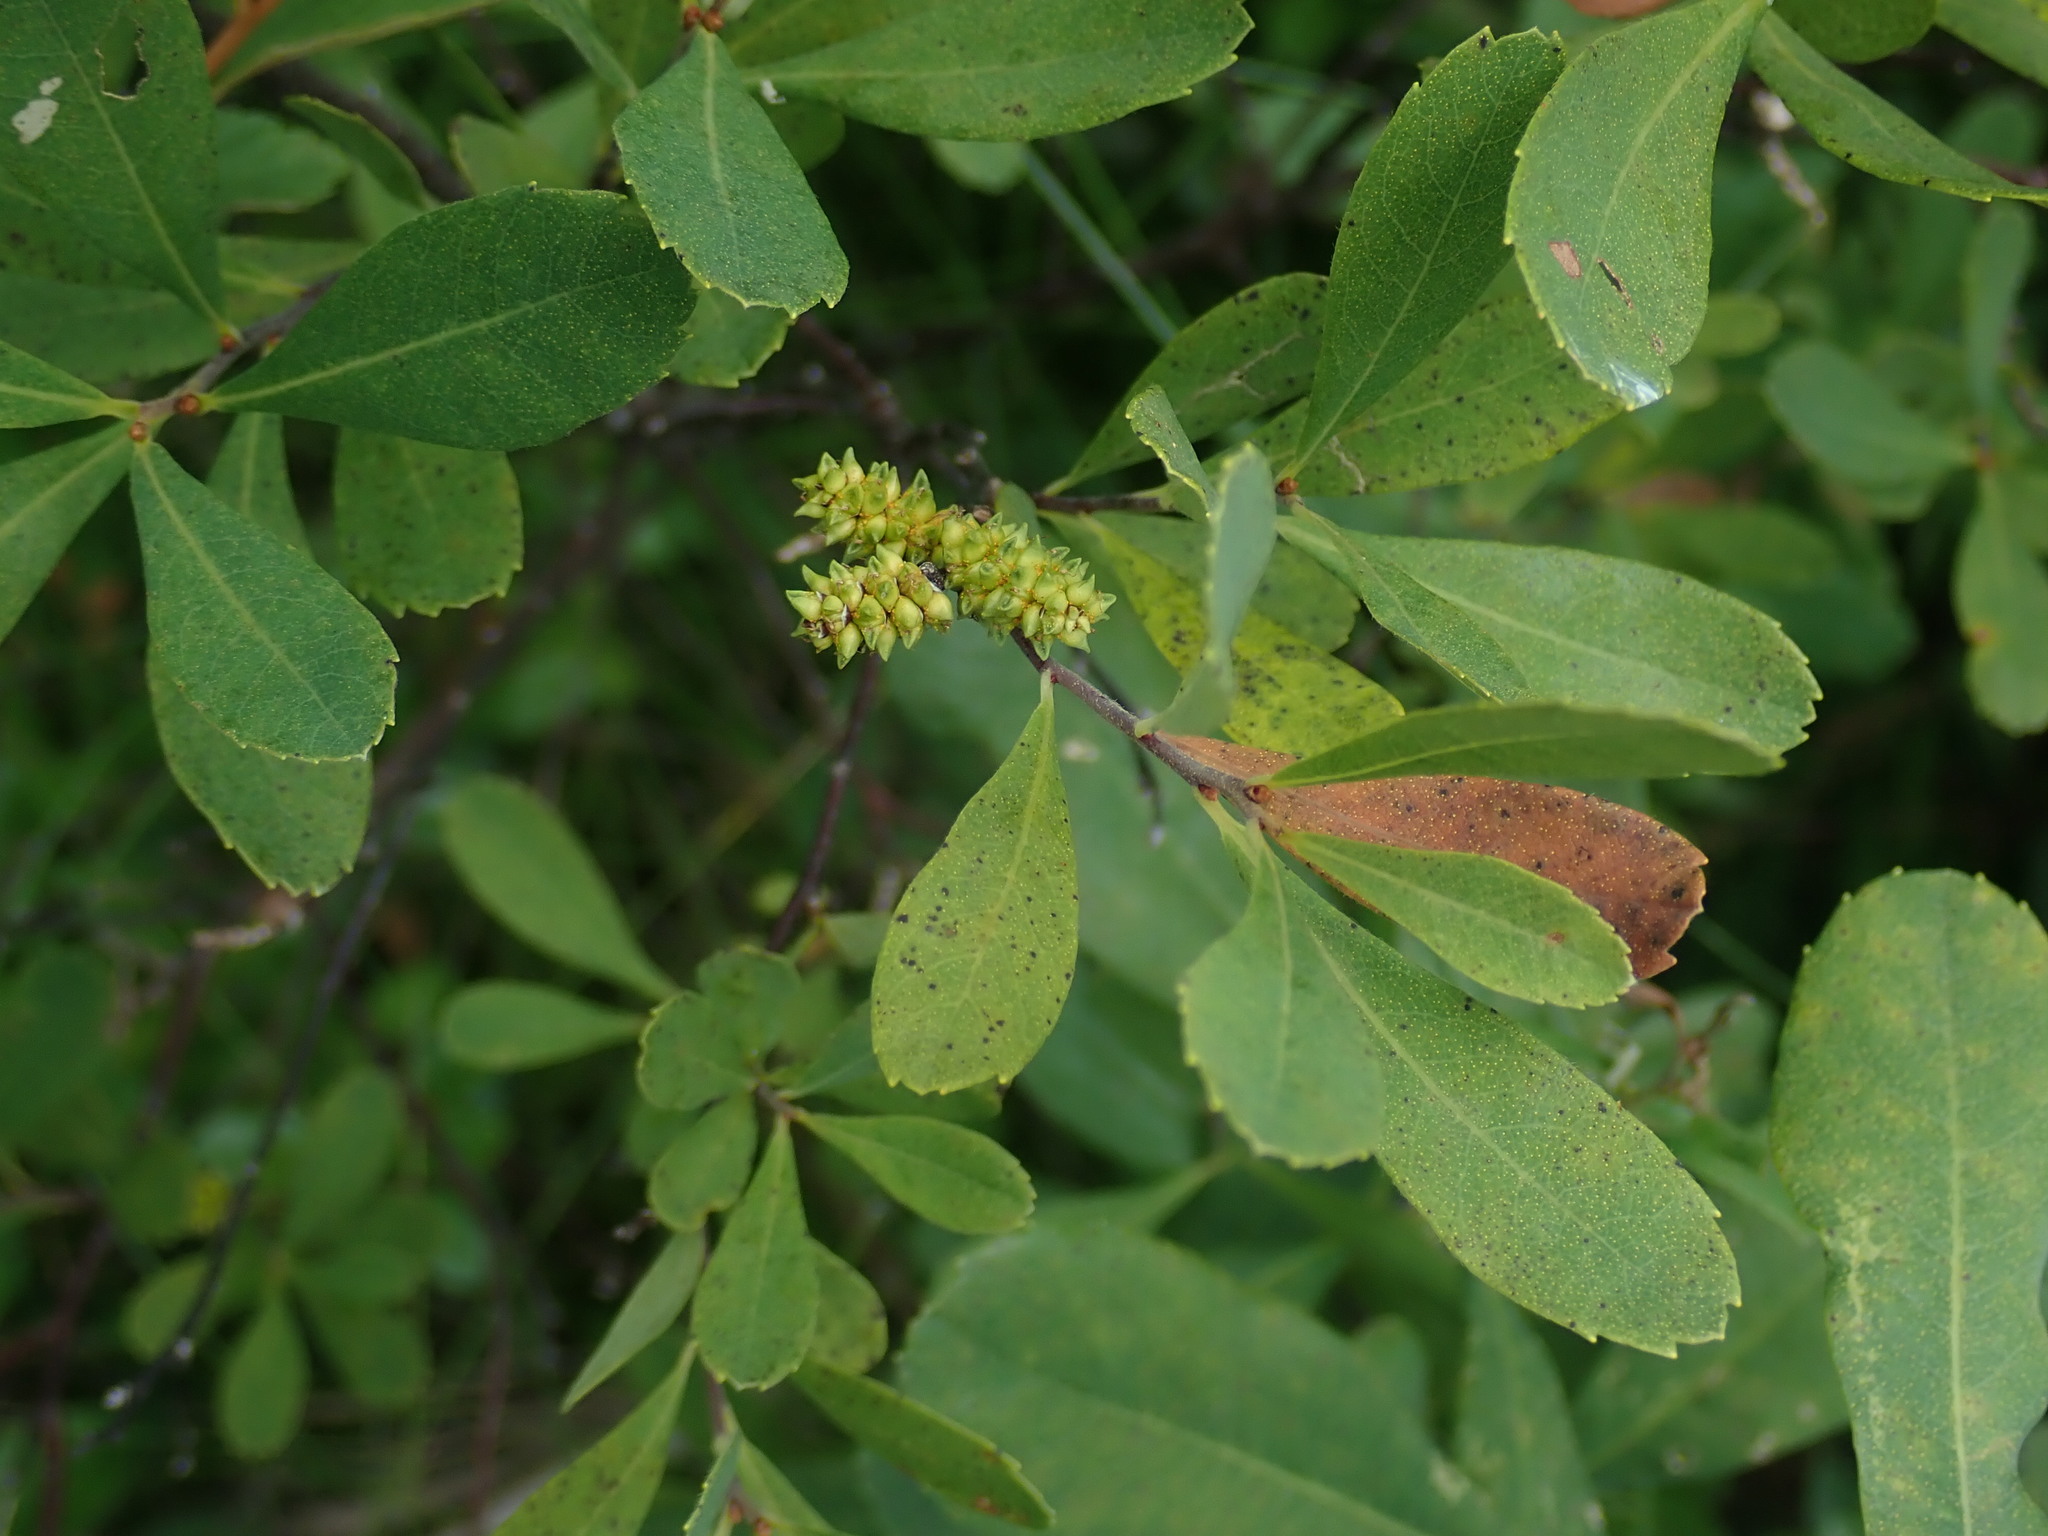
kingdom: Plantae
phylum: Tracheophyta
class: Magnoliopsida
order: Fagales
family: Myricaceae
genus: Myrica
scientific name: Myrica gale
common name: Sweet gale
